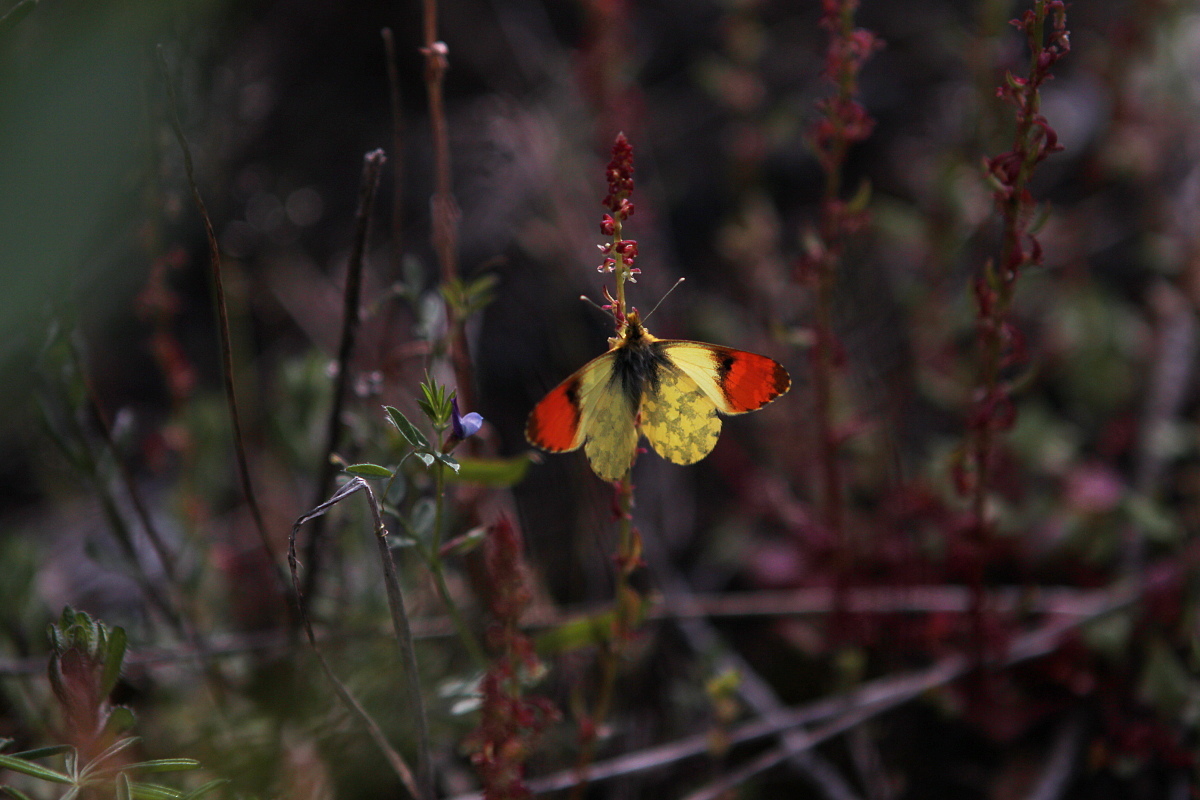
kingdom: Animalia
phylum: Arthropoda
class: Insecta
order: Lepidoptera
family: Pieridae
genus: Anthocharis
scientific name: Anthocharis damone
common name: Eastern orange tip
